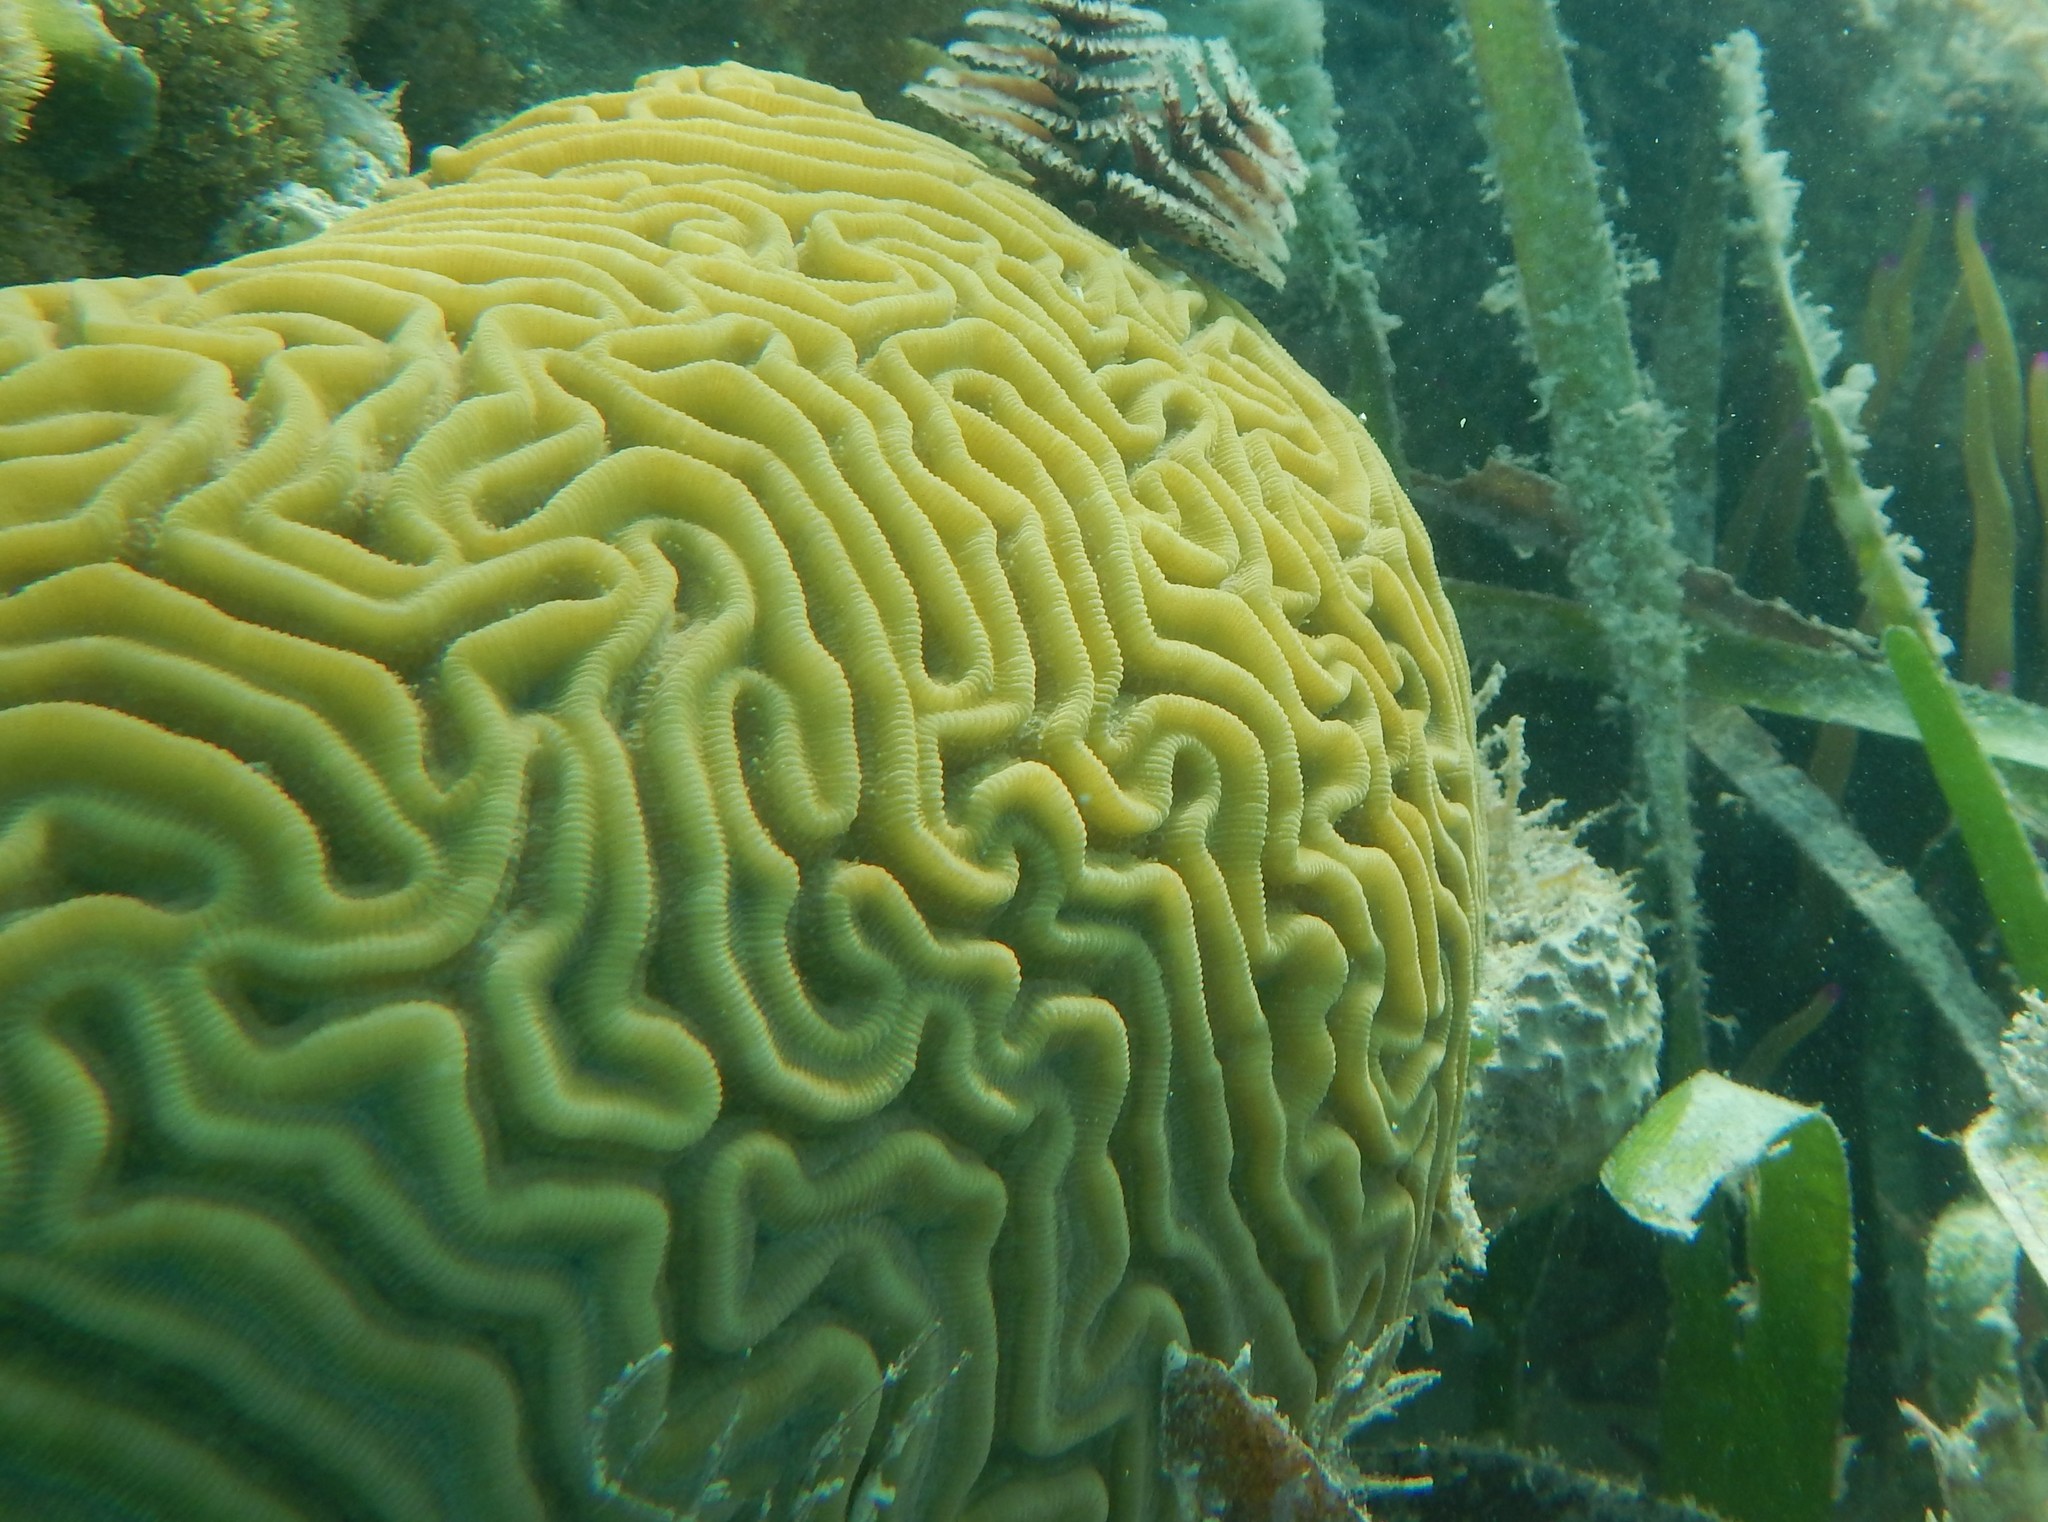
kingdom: Animalia
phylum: Cnidaria
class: Anthozoa
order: Scleractinia
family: Faviidae
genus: Diploria
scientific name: Diploria labyrinthiformis
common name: Grooved brain coral
